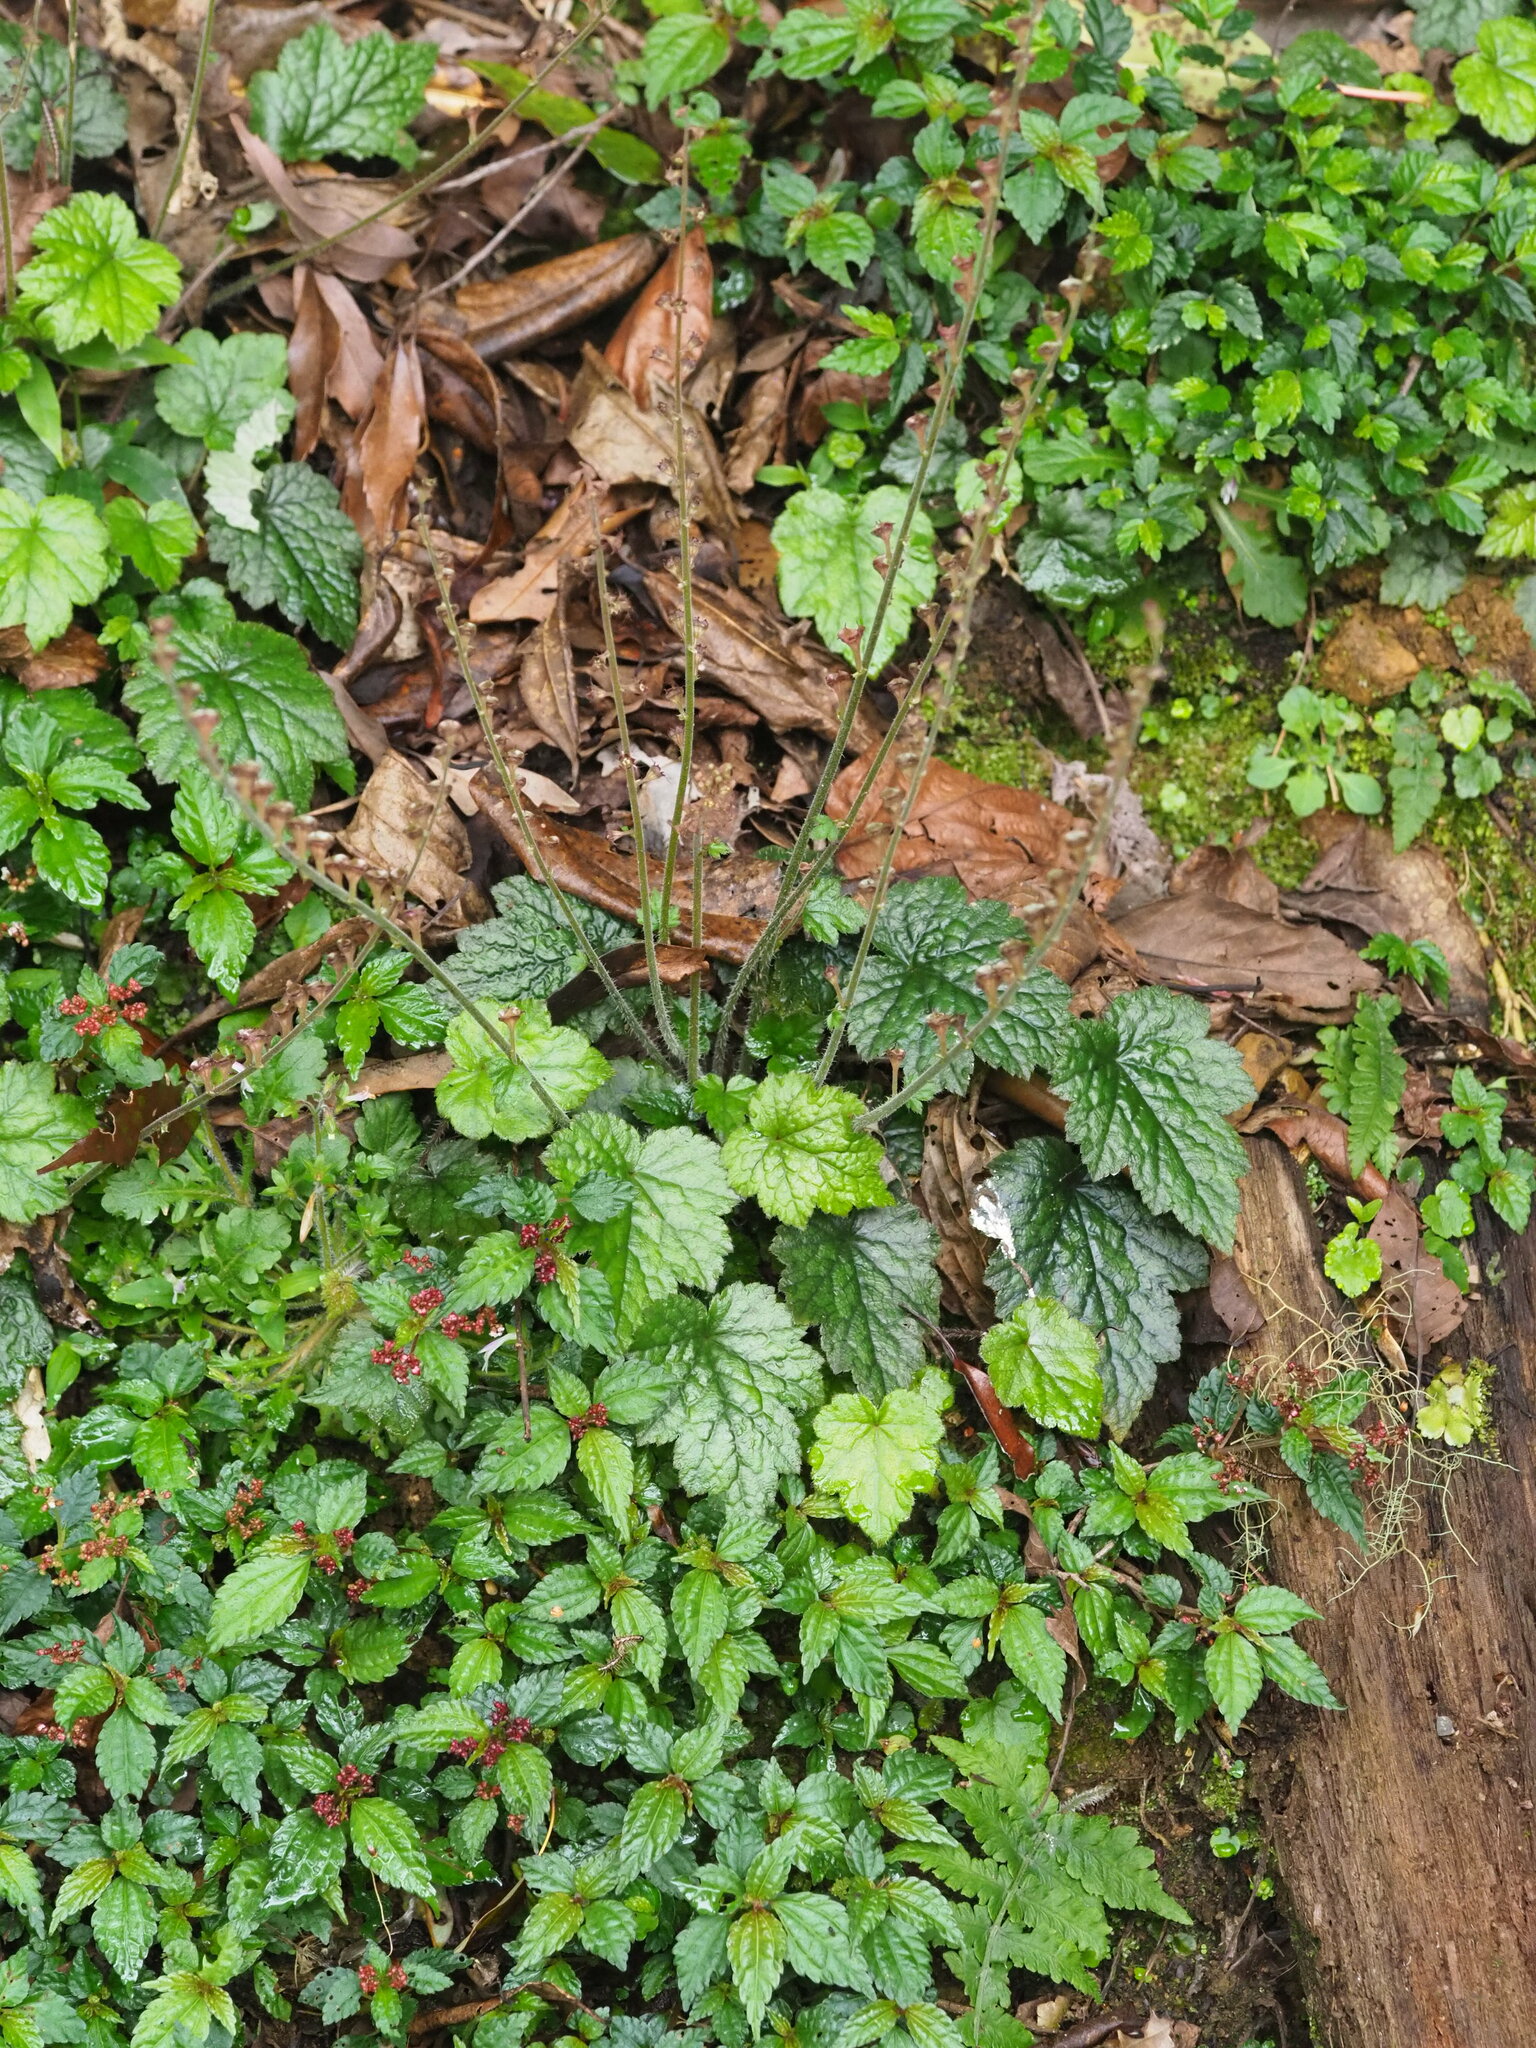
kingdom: Plantae
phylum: Tracheophyta
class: Magnoliopsida
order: Saxifragales
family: Saxifragaceae
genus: Asimitellaria
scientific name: Asimitellaria formosana
